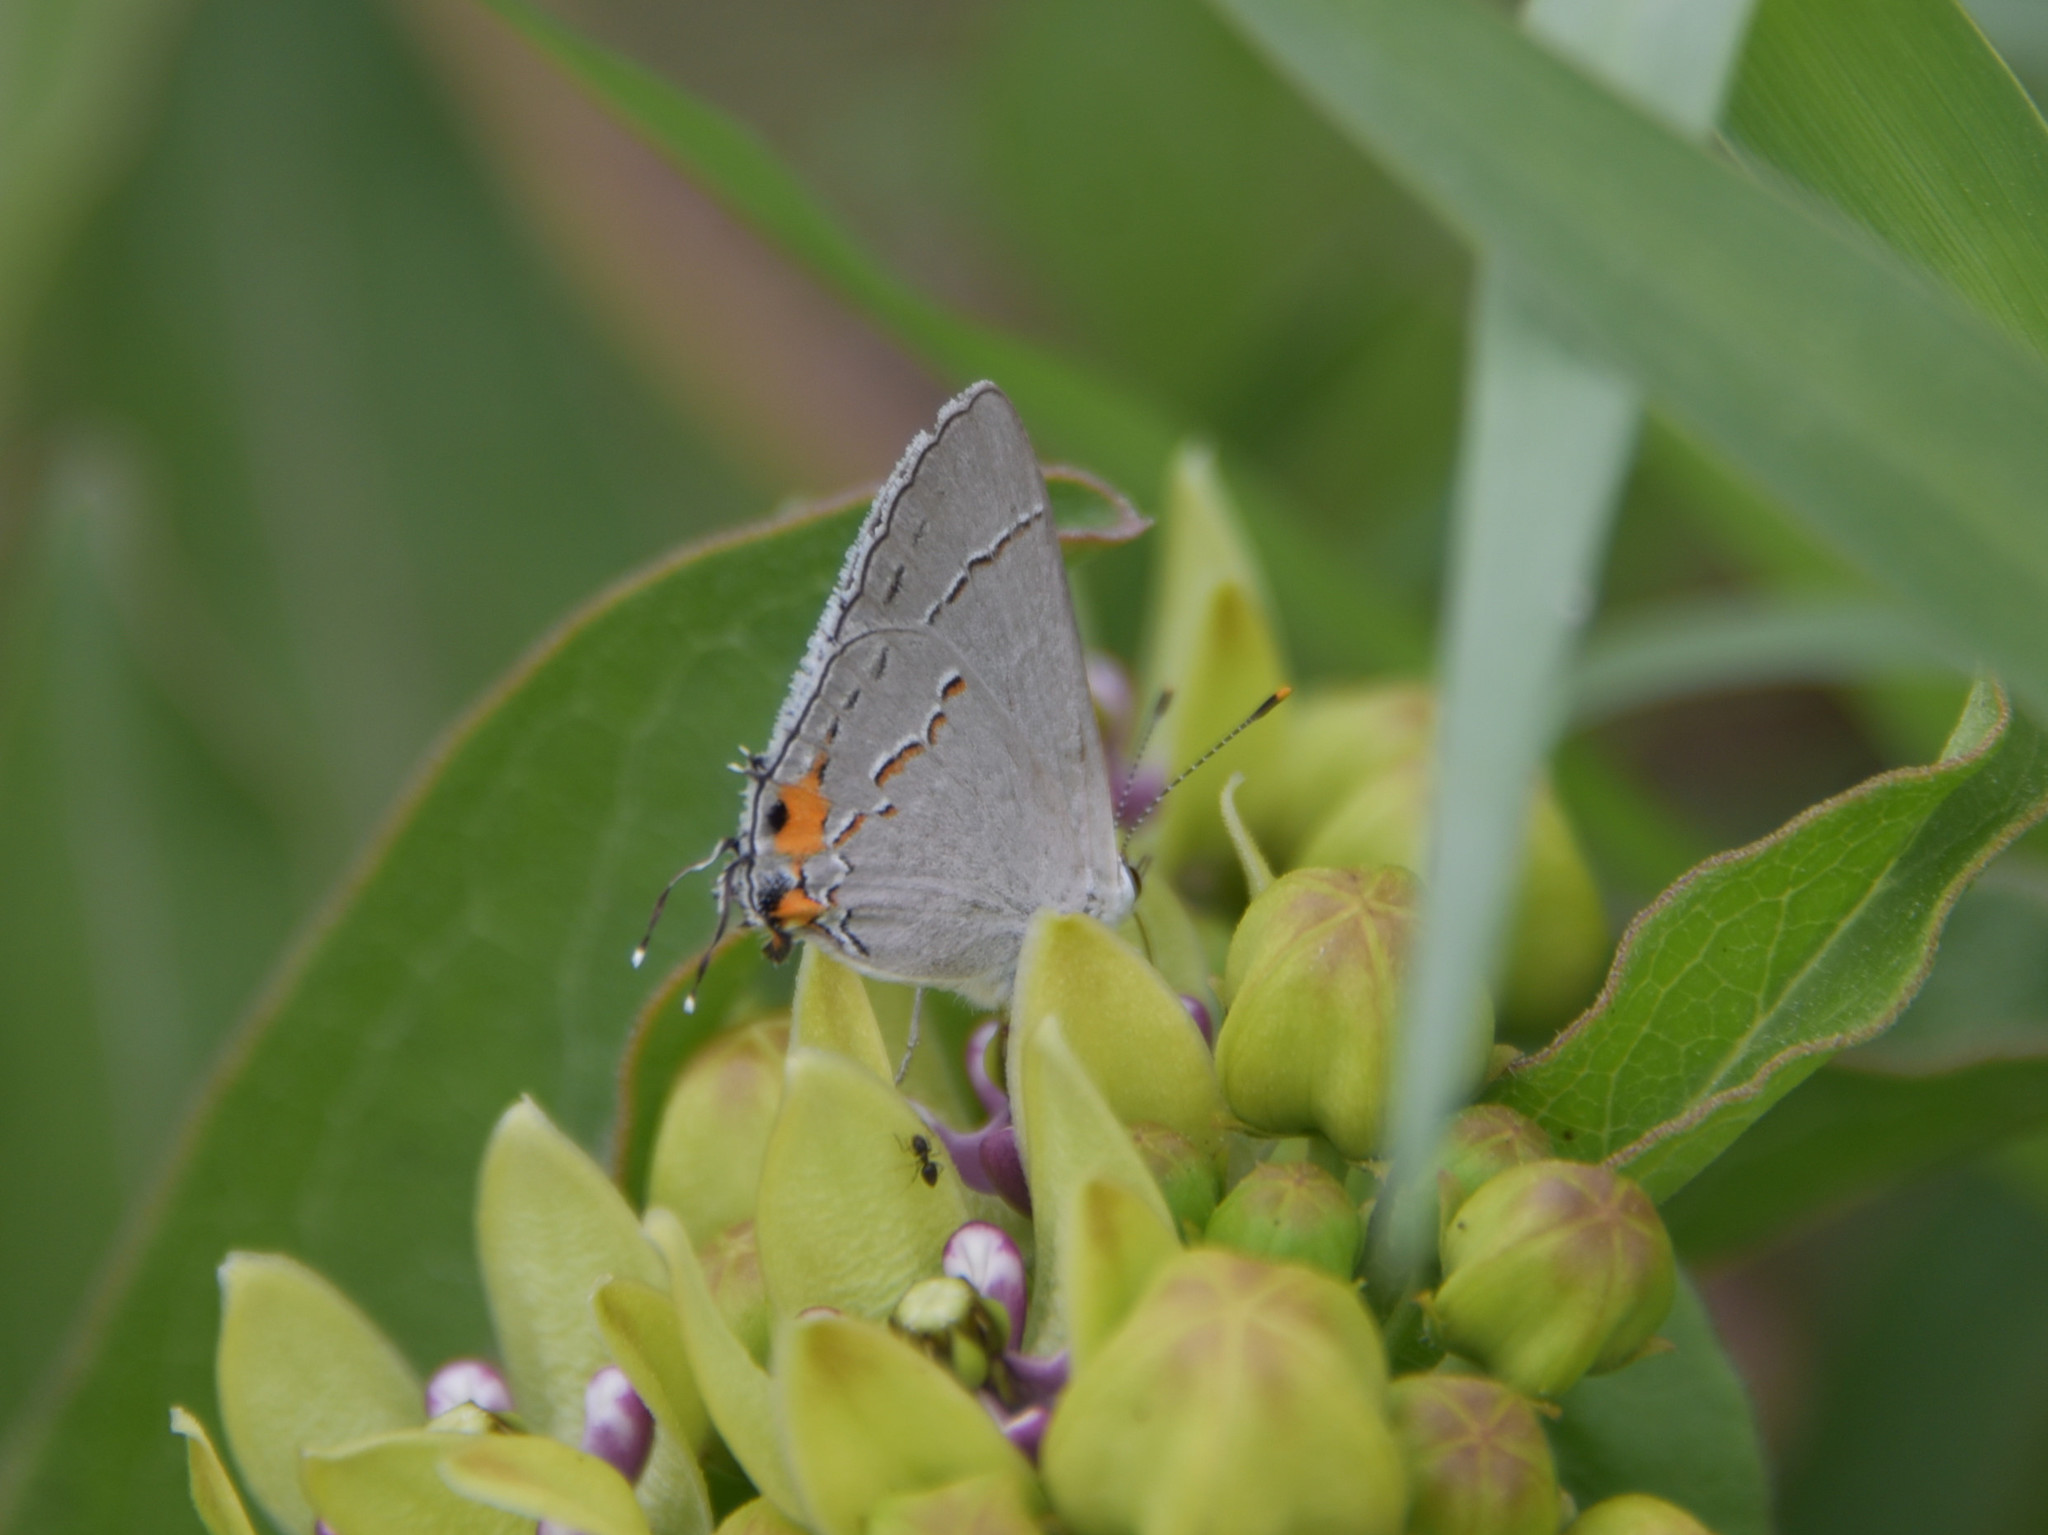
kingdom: Animalia
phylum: Arthropoda
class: Insecta
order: Lepidoptera
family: Lycaenidae
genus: Strymon
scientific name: Strymon melinus
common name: Gray hairstreak
